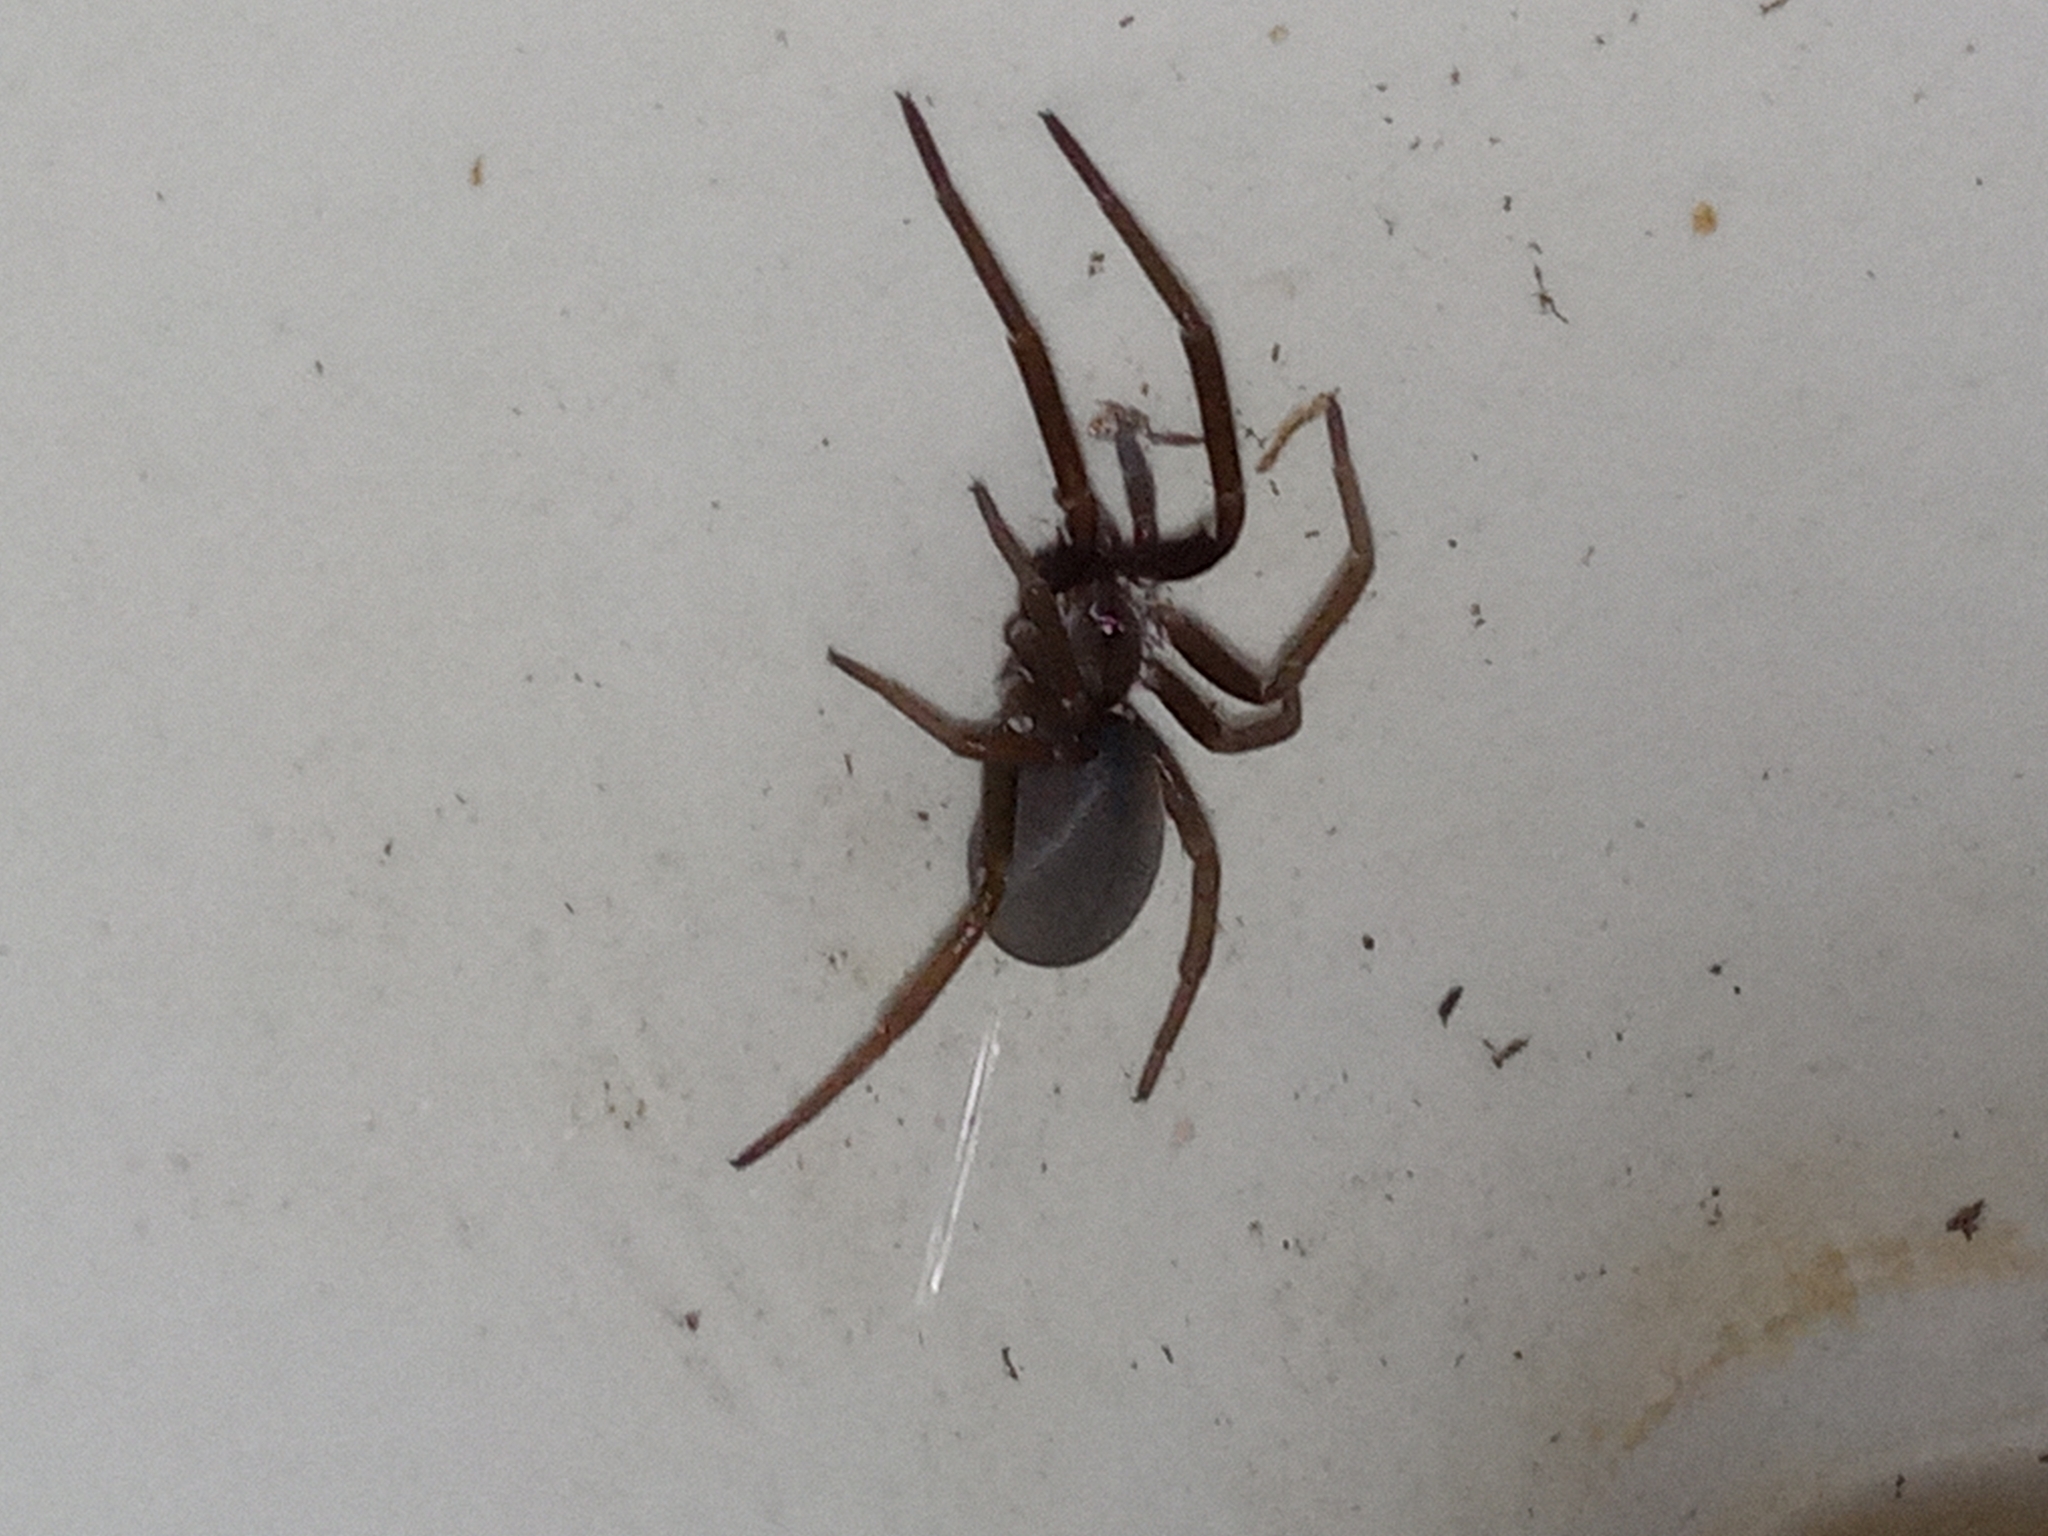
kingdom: Animalia
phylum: Arthropoda
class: Arachnida
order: Araneae
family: Filistatidae
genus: Kukulcania
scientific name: Kukulcania hibernalis
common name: Crevice weaver
